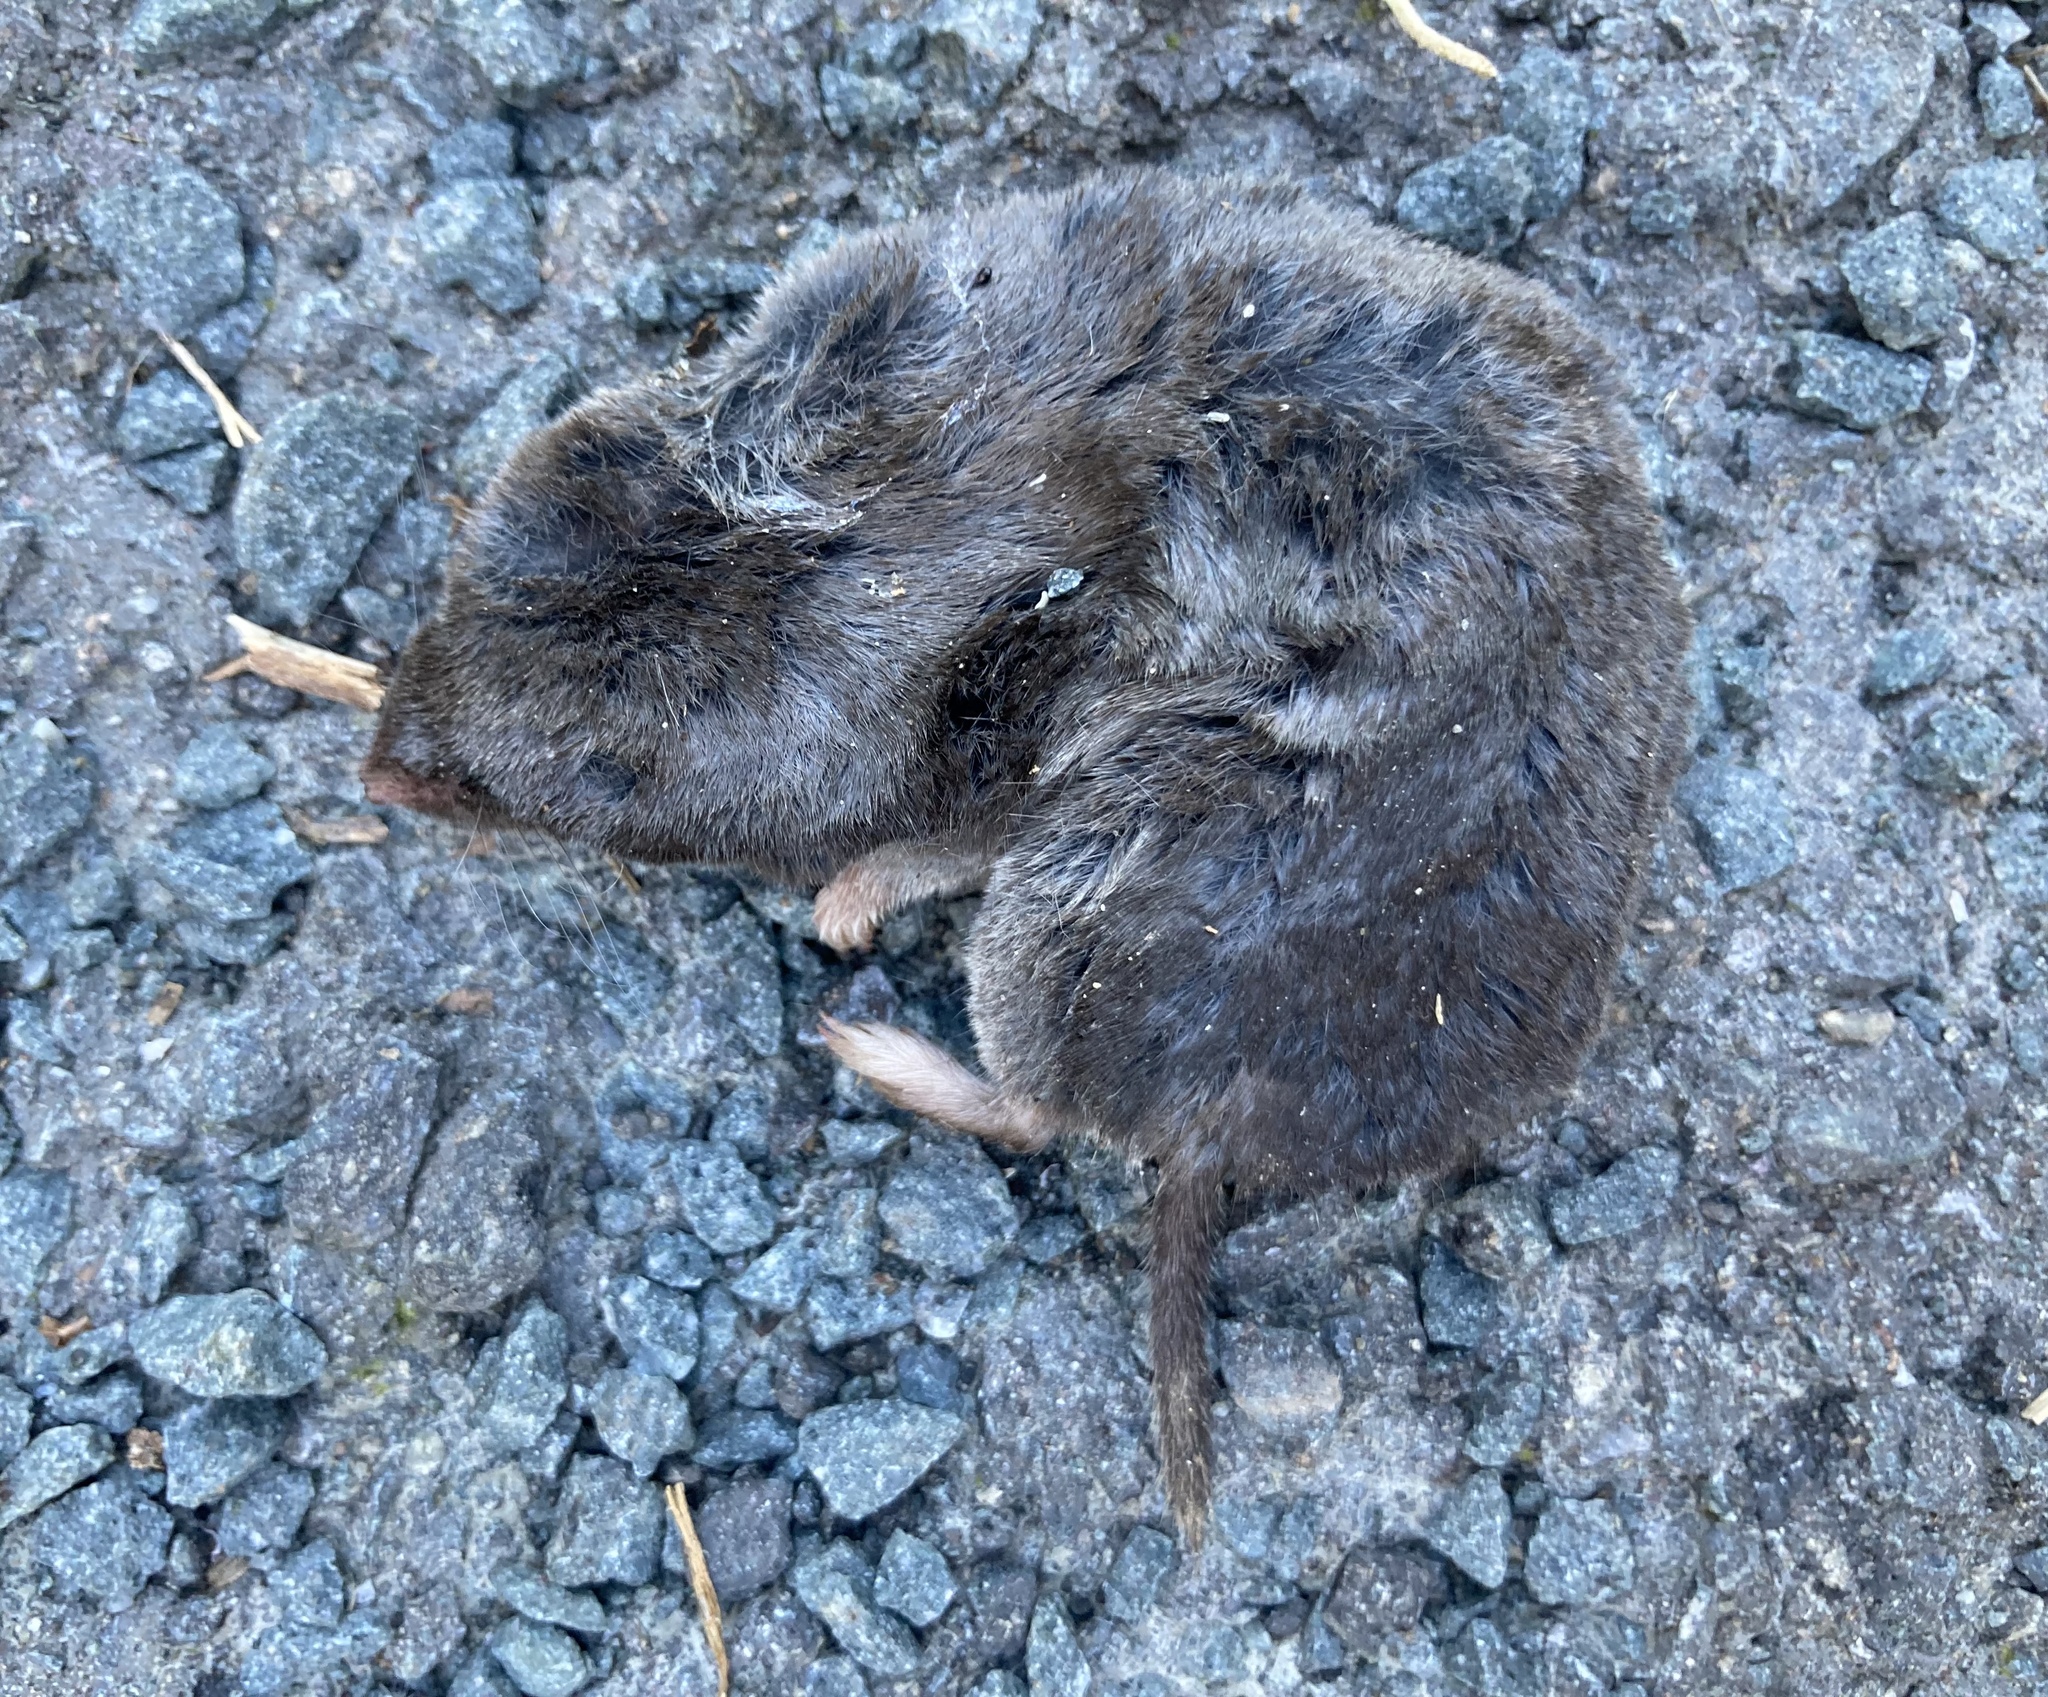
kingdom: Animalia
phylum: Chordata
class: Mammalia
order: Soricomorpha
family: Soricidae
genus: Blarina
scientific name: Blarina brevicauda
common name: Northern short-tailed shrew
